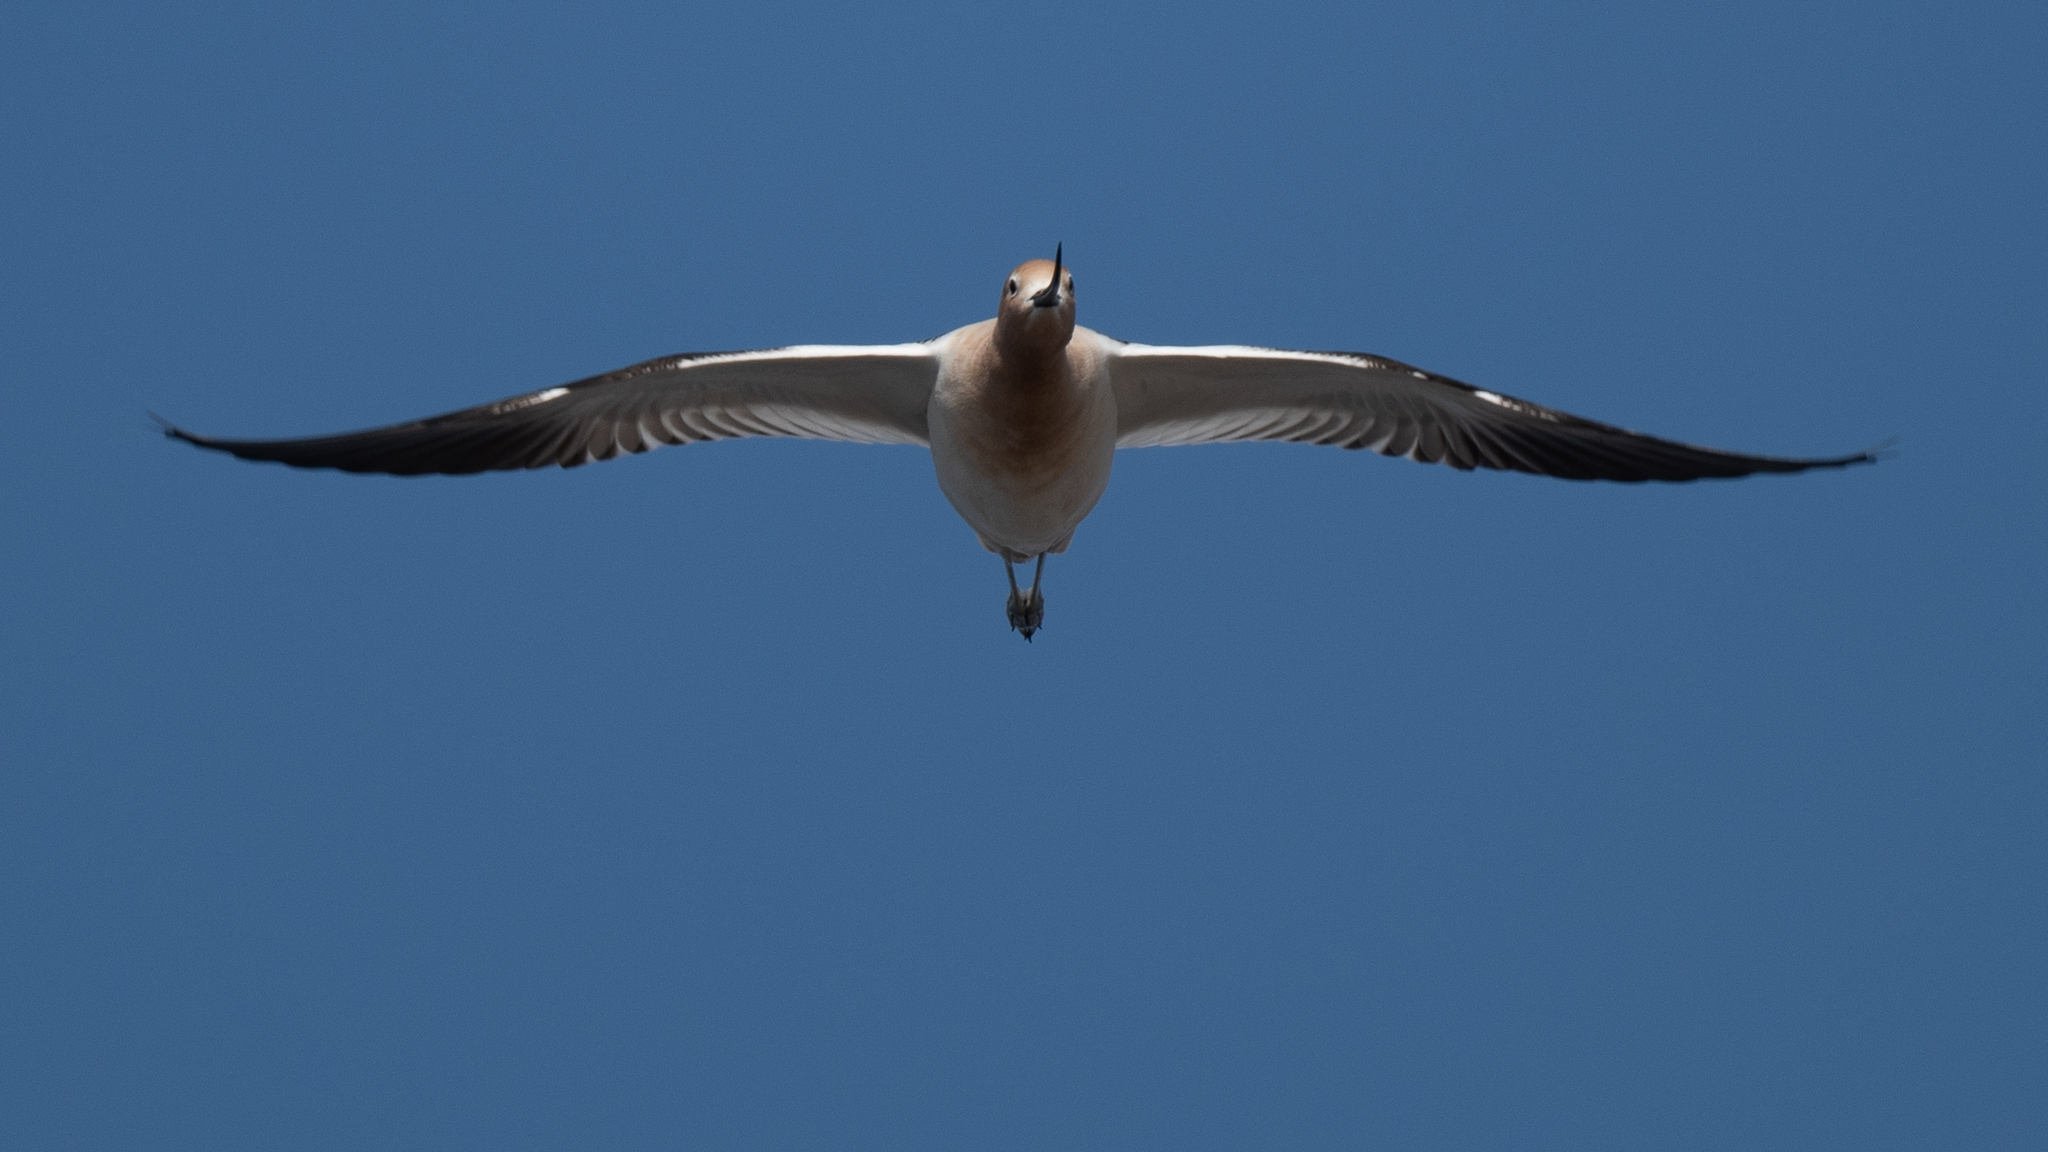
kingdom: Animalia
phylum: Chordata
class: Aves
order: Charadriiformes
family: Recurvirostridae
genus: Recurvirostra
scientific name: Recurvirostra americana
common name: American avocet
